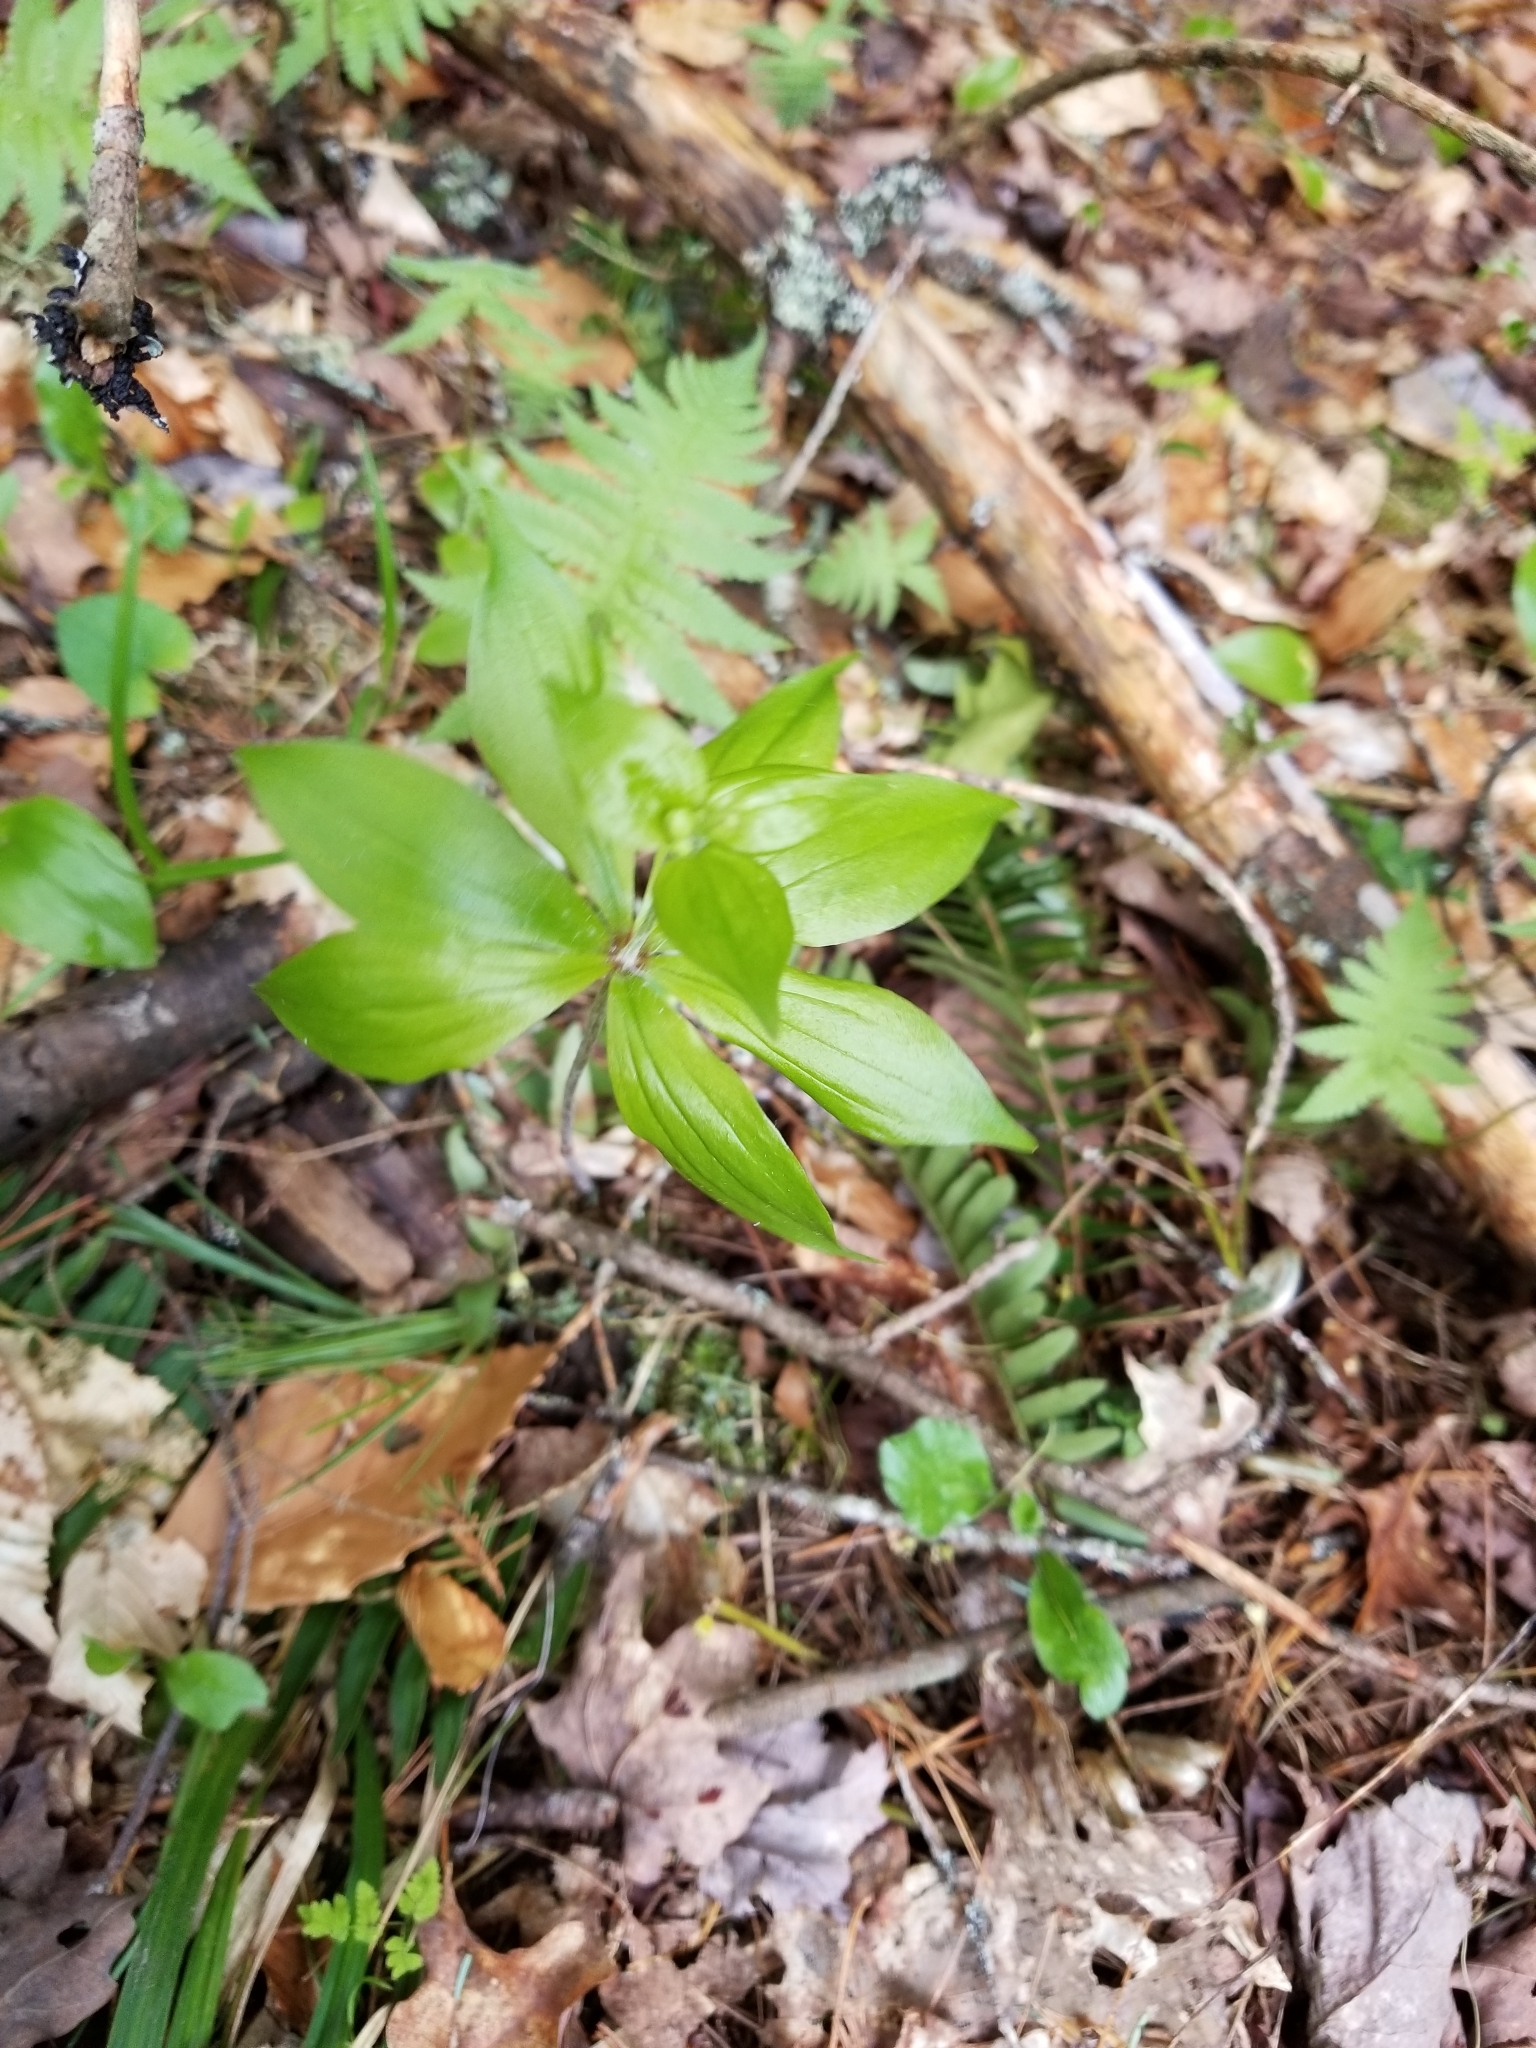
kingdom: Plantae
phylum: Tracheophyta
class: Liliopsida
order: Liliales
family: Liliaceae
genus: Medeola
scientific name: Medeola virginiana
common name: Indian cucumber-root
